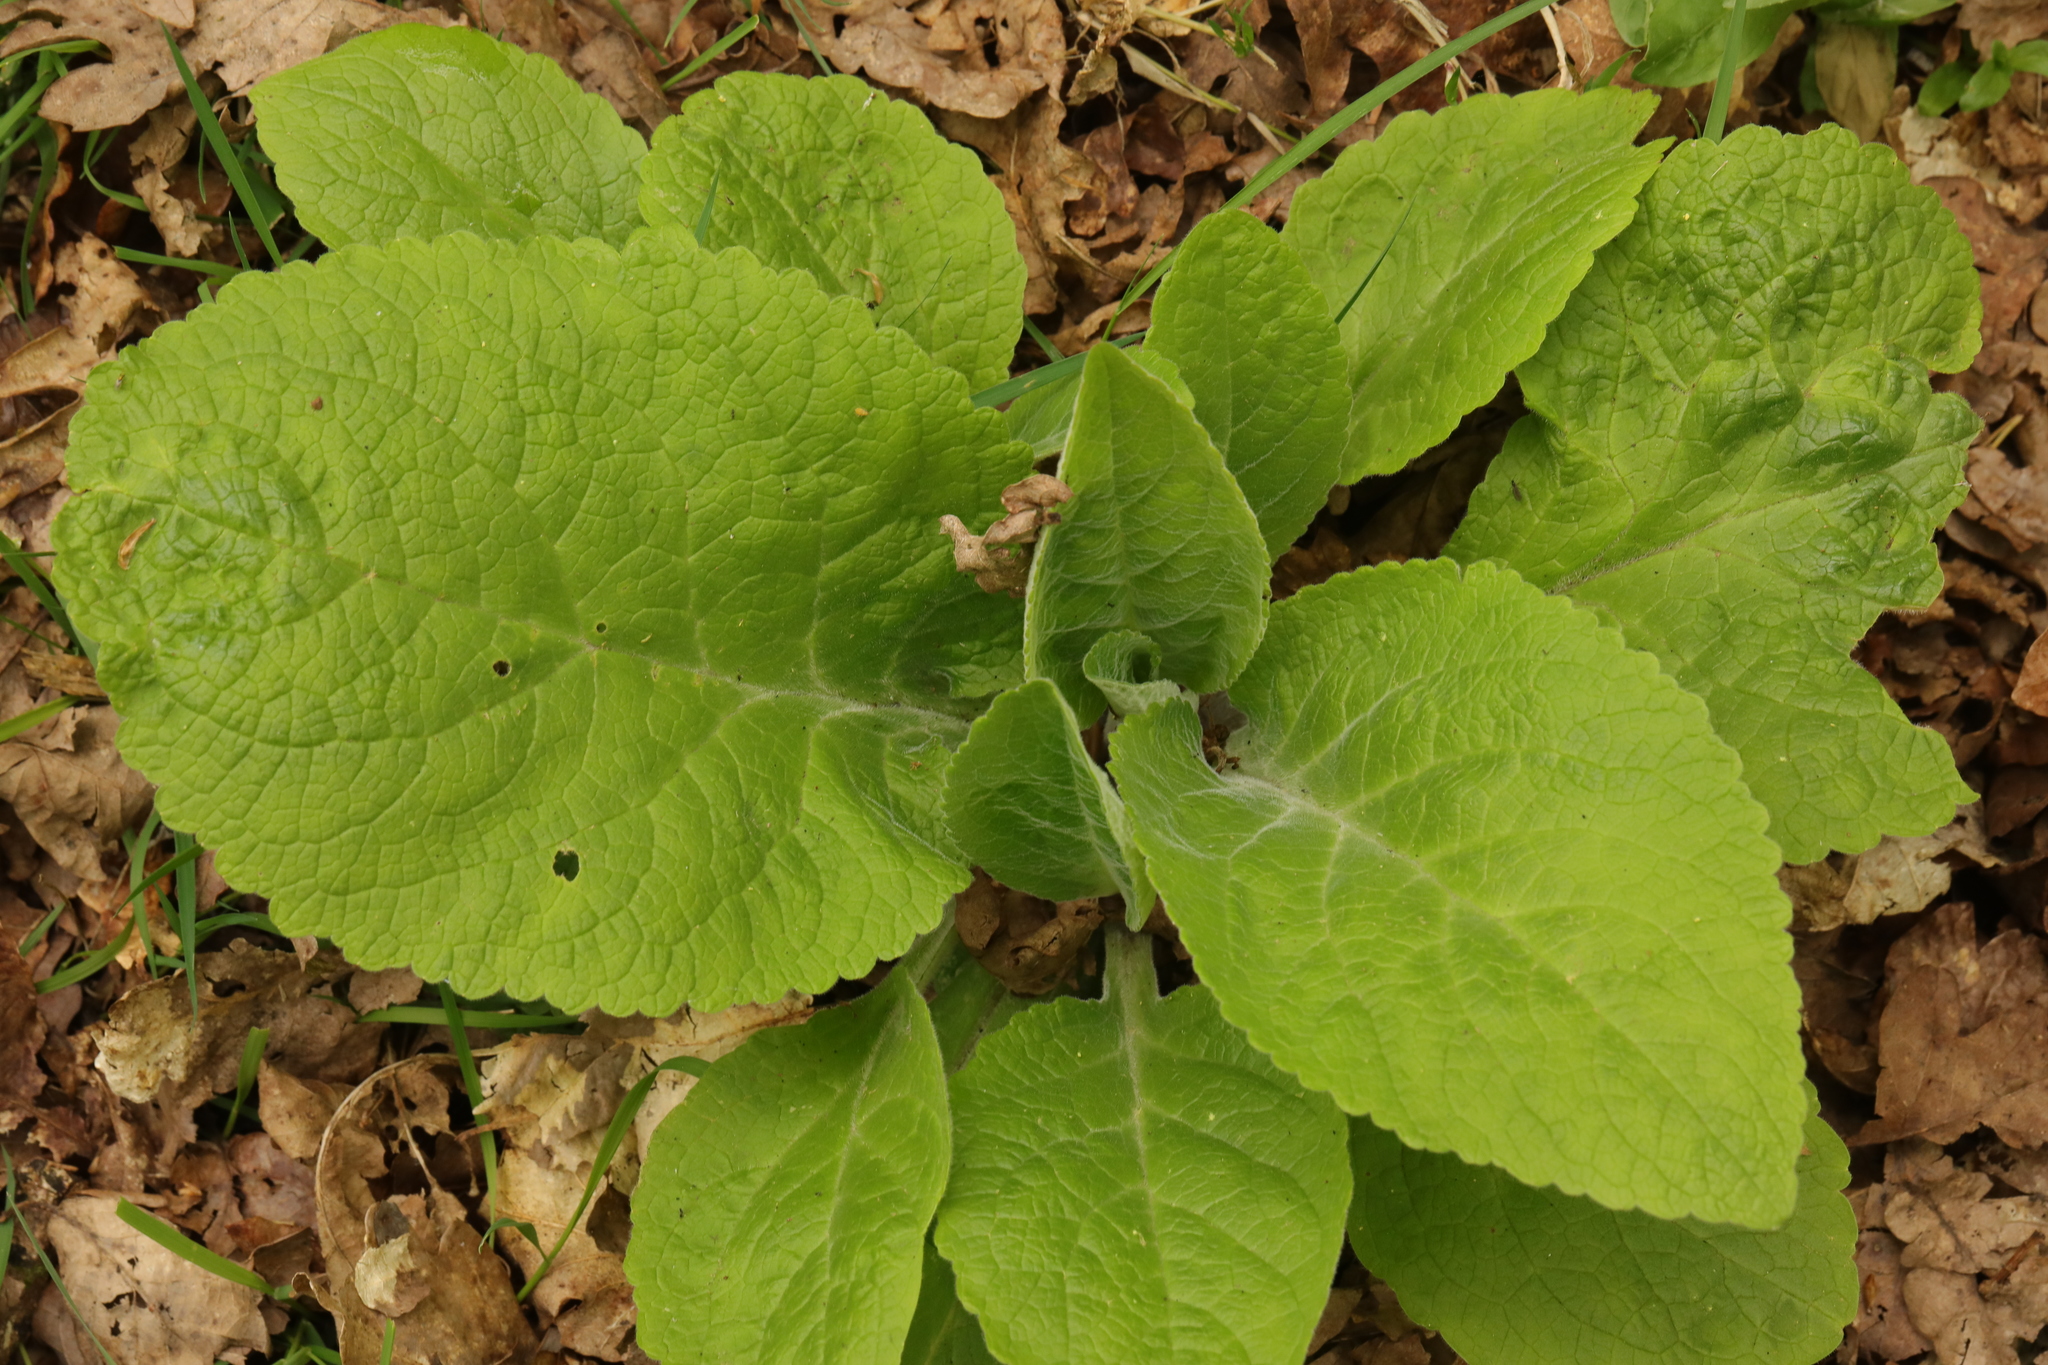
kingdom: Plantae
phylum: Tracheophyta
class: Magnoliopsida
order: Lamiales
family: Plantaginaceae
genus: Digitalis
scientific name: Digitalis purpurea
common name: Foxglove
